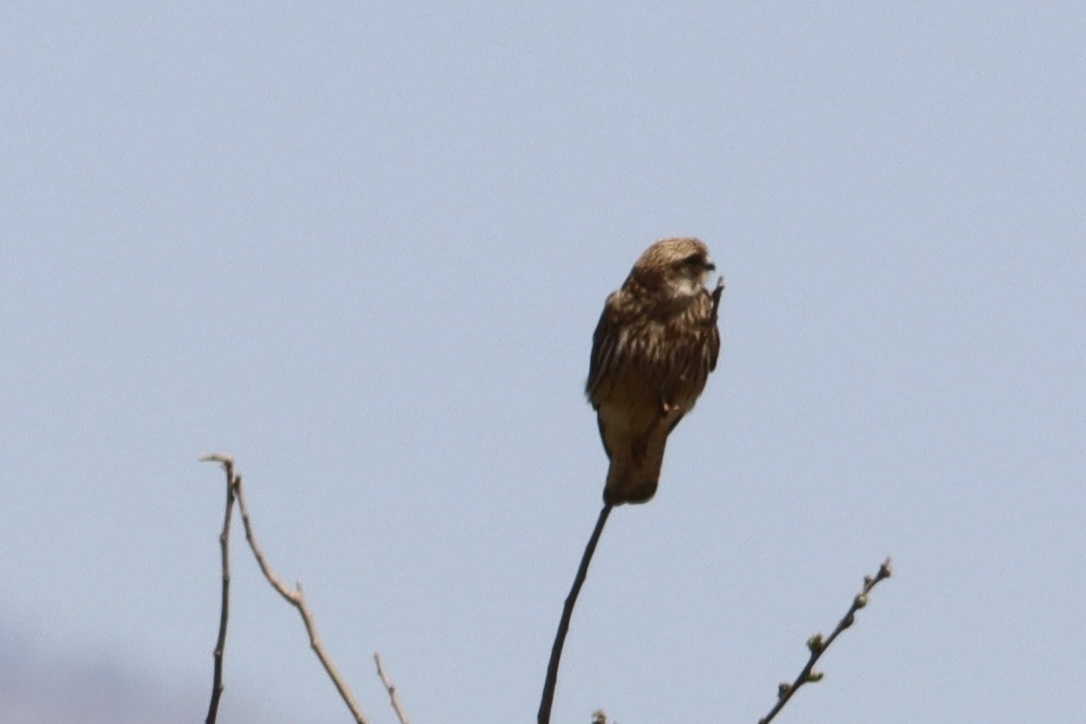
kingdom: Animalia
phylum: Chordata
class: Aves
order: Falconiformes
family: Falconidae
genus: Falco
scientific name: Falco naumanni
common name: Lesser kestrel
